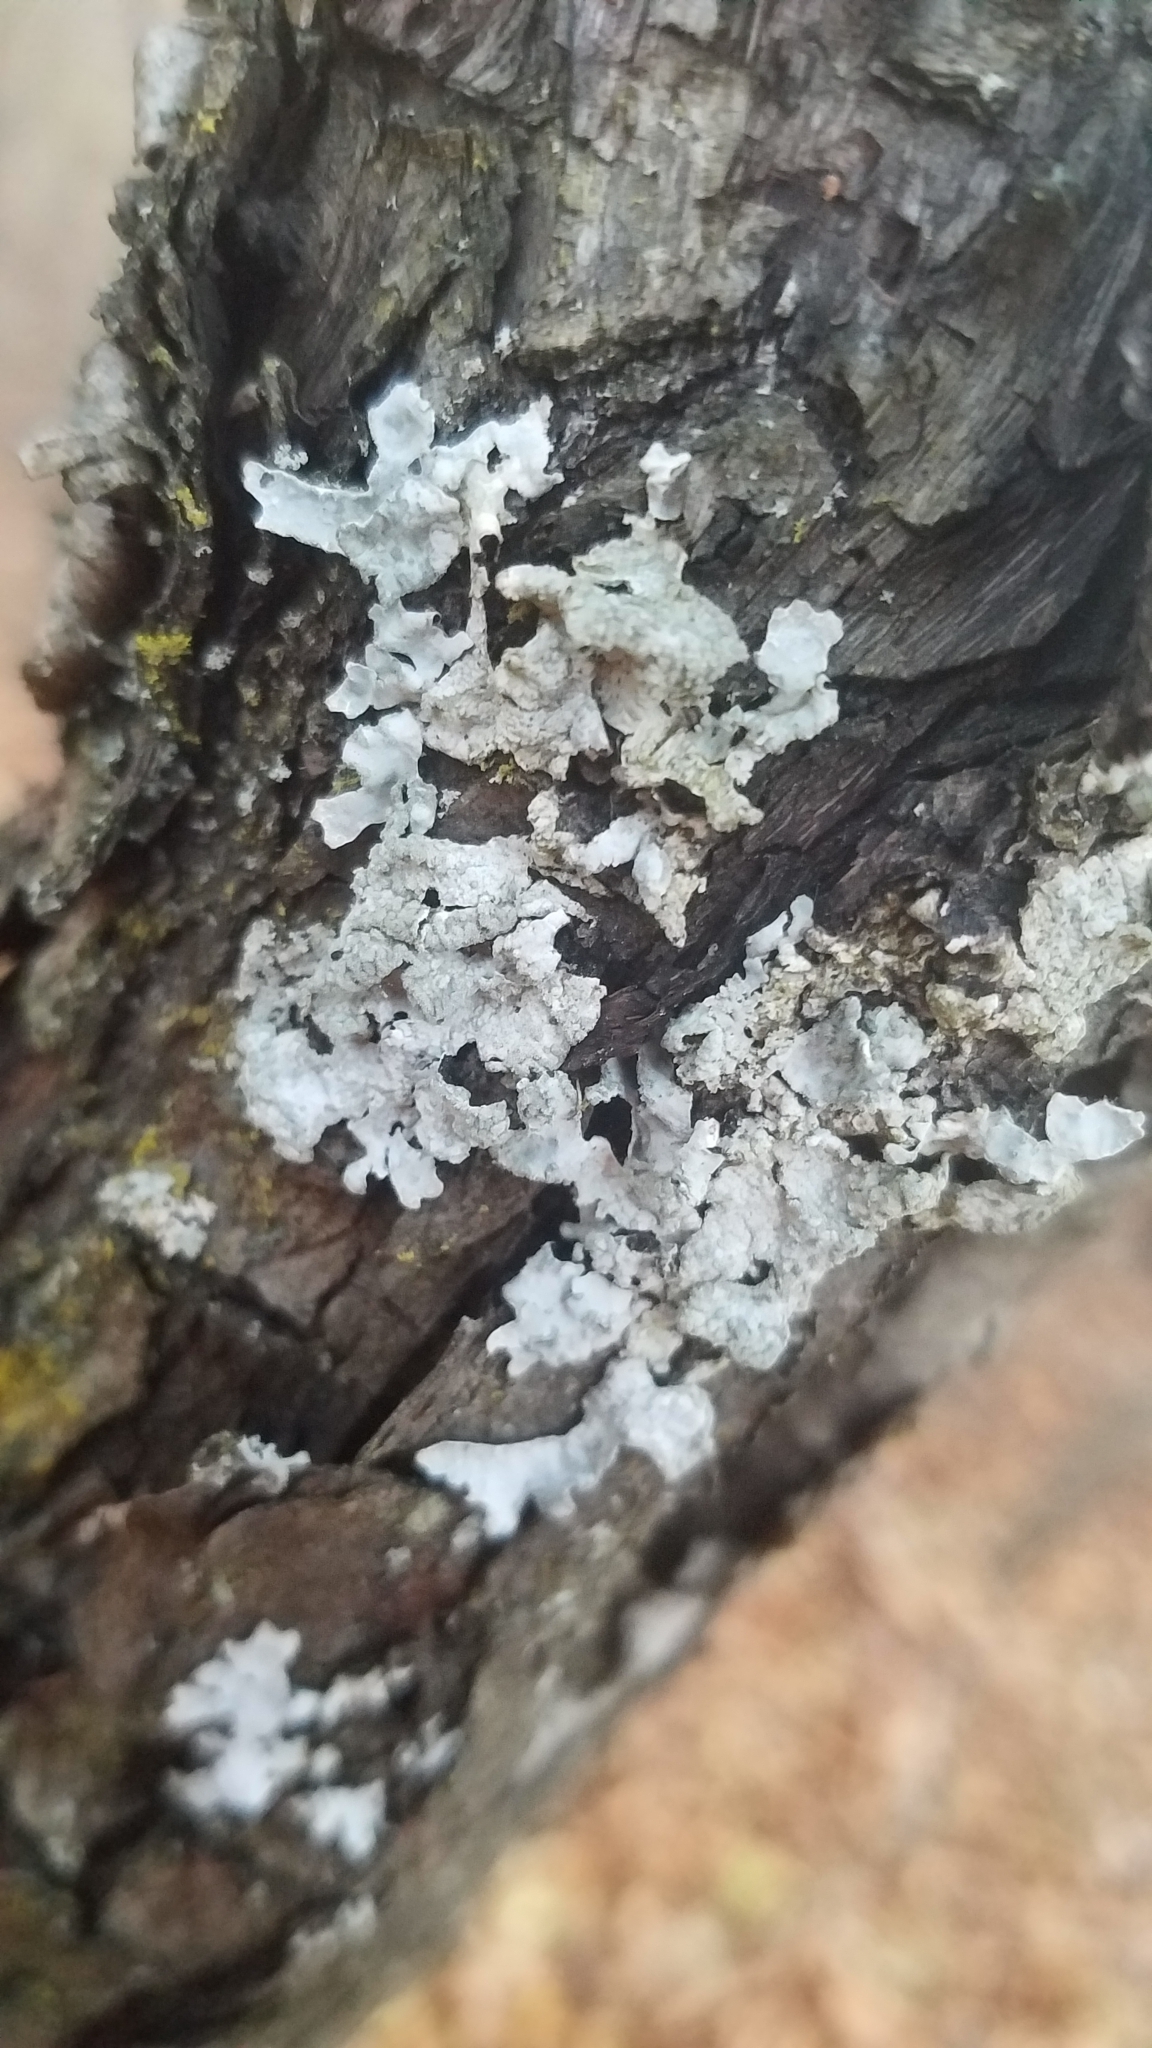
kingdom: Fungi
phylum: Ascomycota
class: Lecanoromycetes
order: Lecanorales
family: Parmeliaceae
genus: Parmelia
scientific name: Parmelia sulcata
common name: Netted shield lichen
